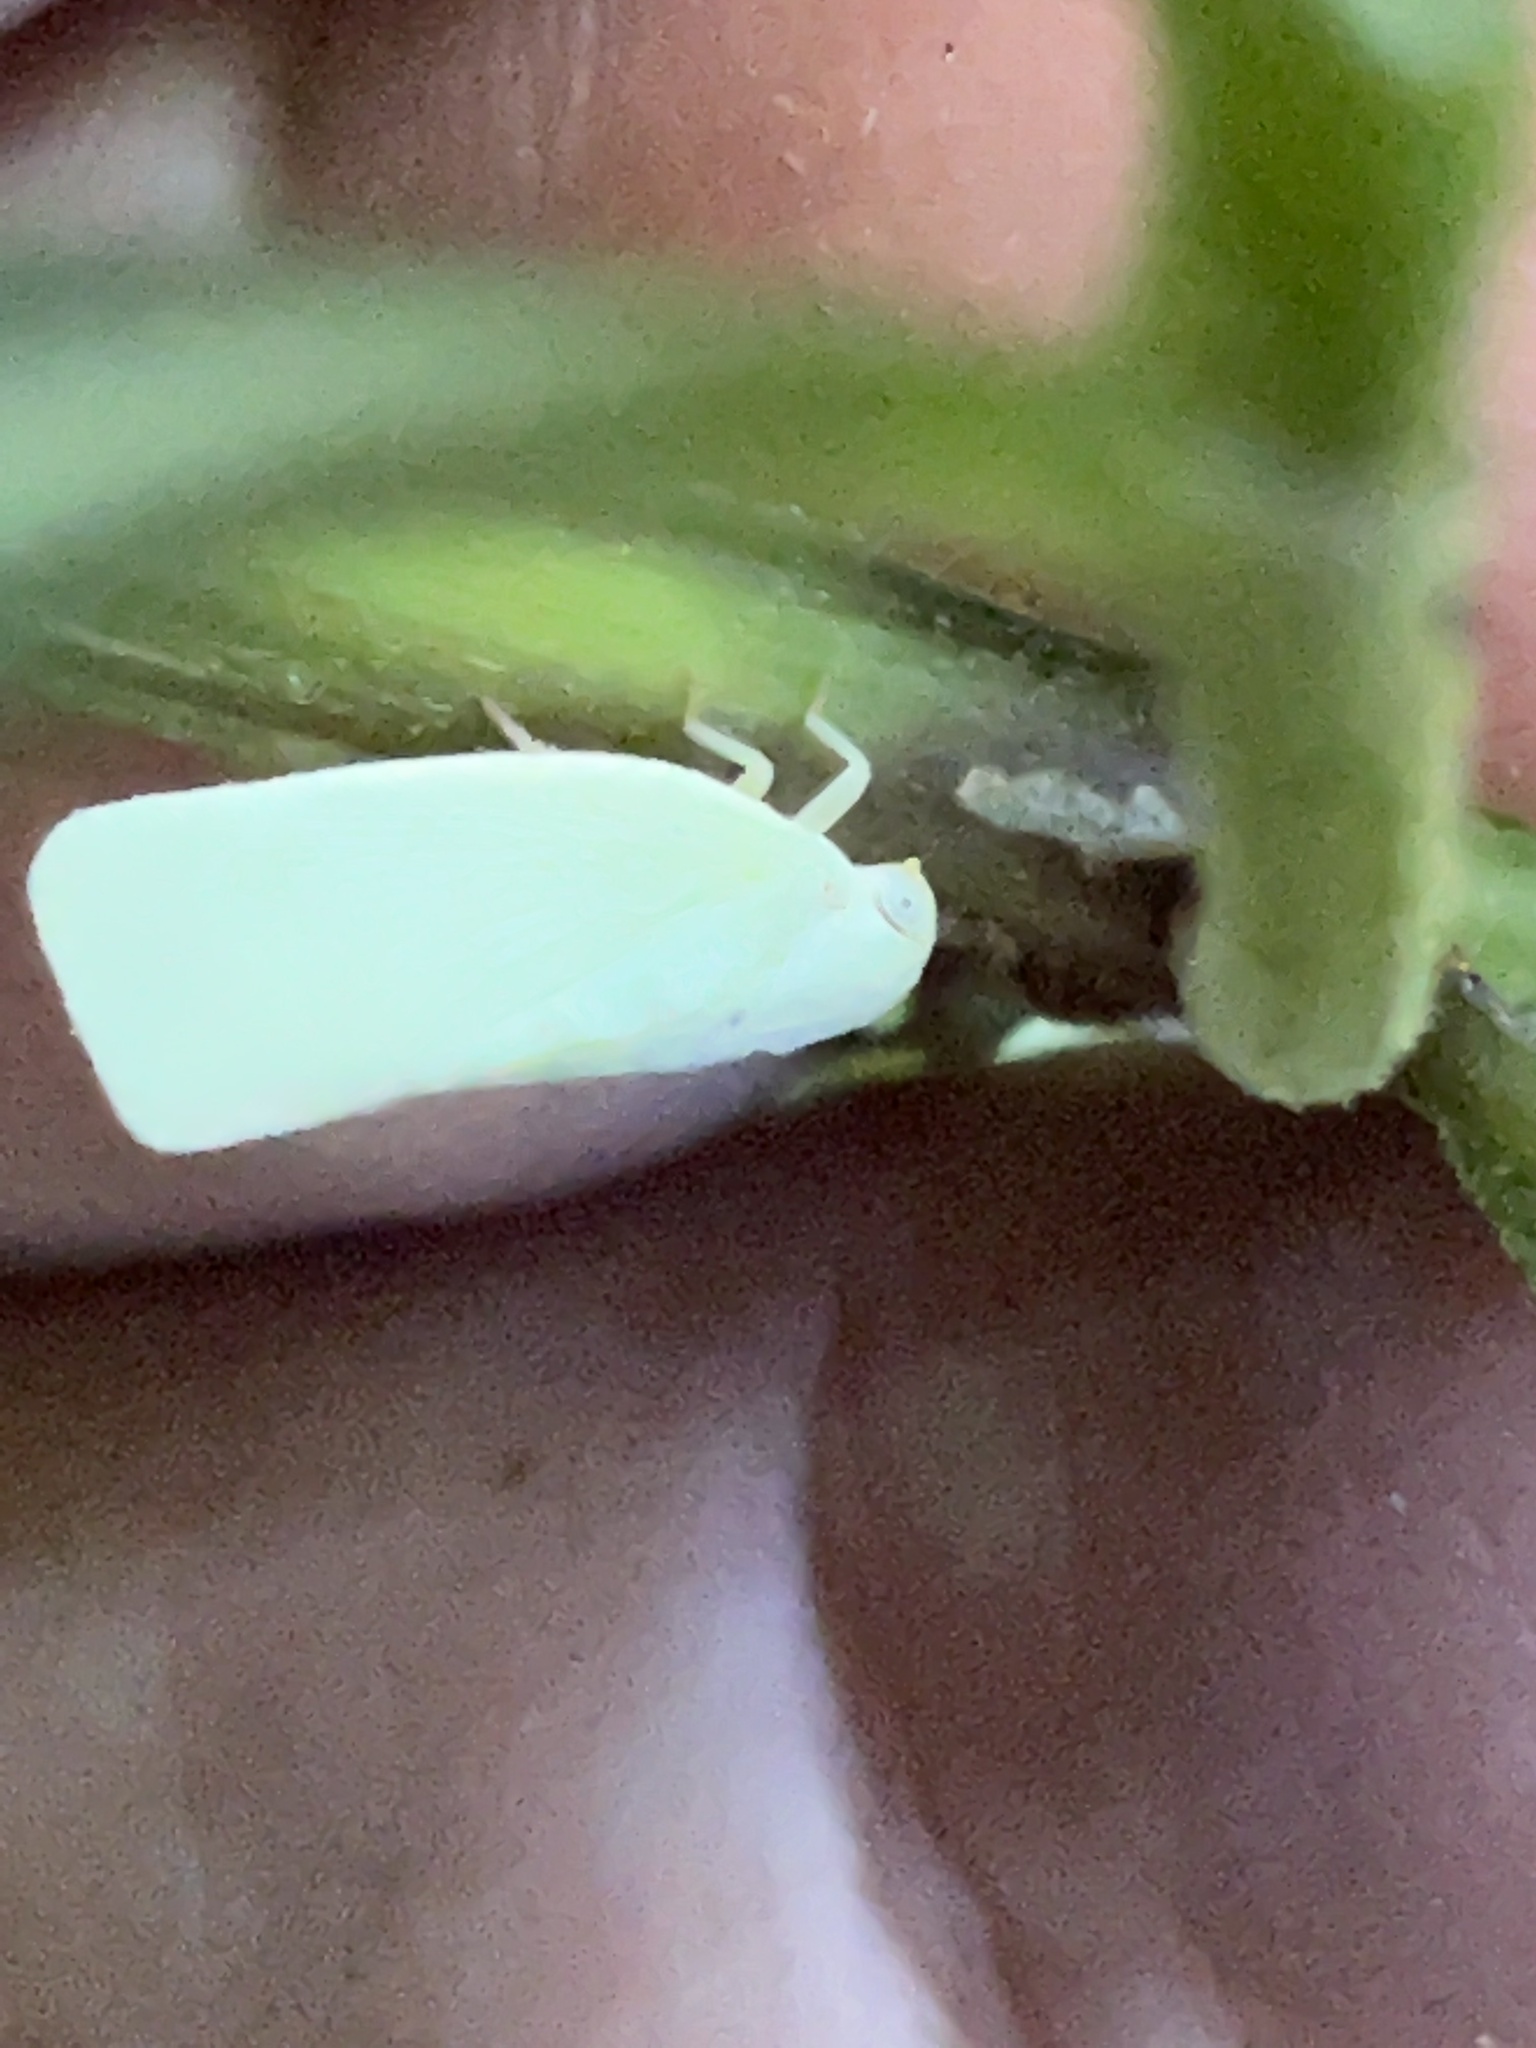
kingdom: Animalia
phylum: Arthropoda
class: Insecta
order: Hemiptera
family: Flatidae
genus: Flatormenis
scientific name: Flatormenis proxima
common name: Northern flatid planthopper
